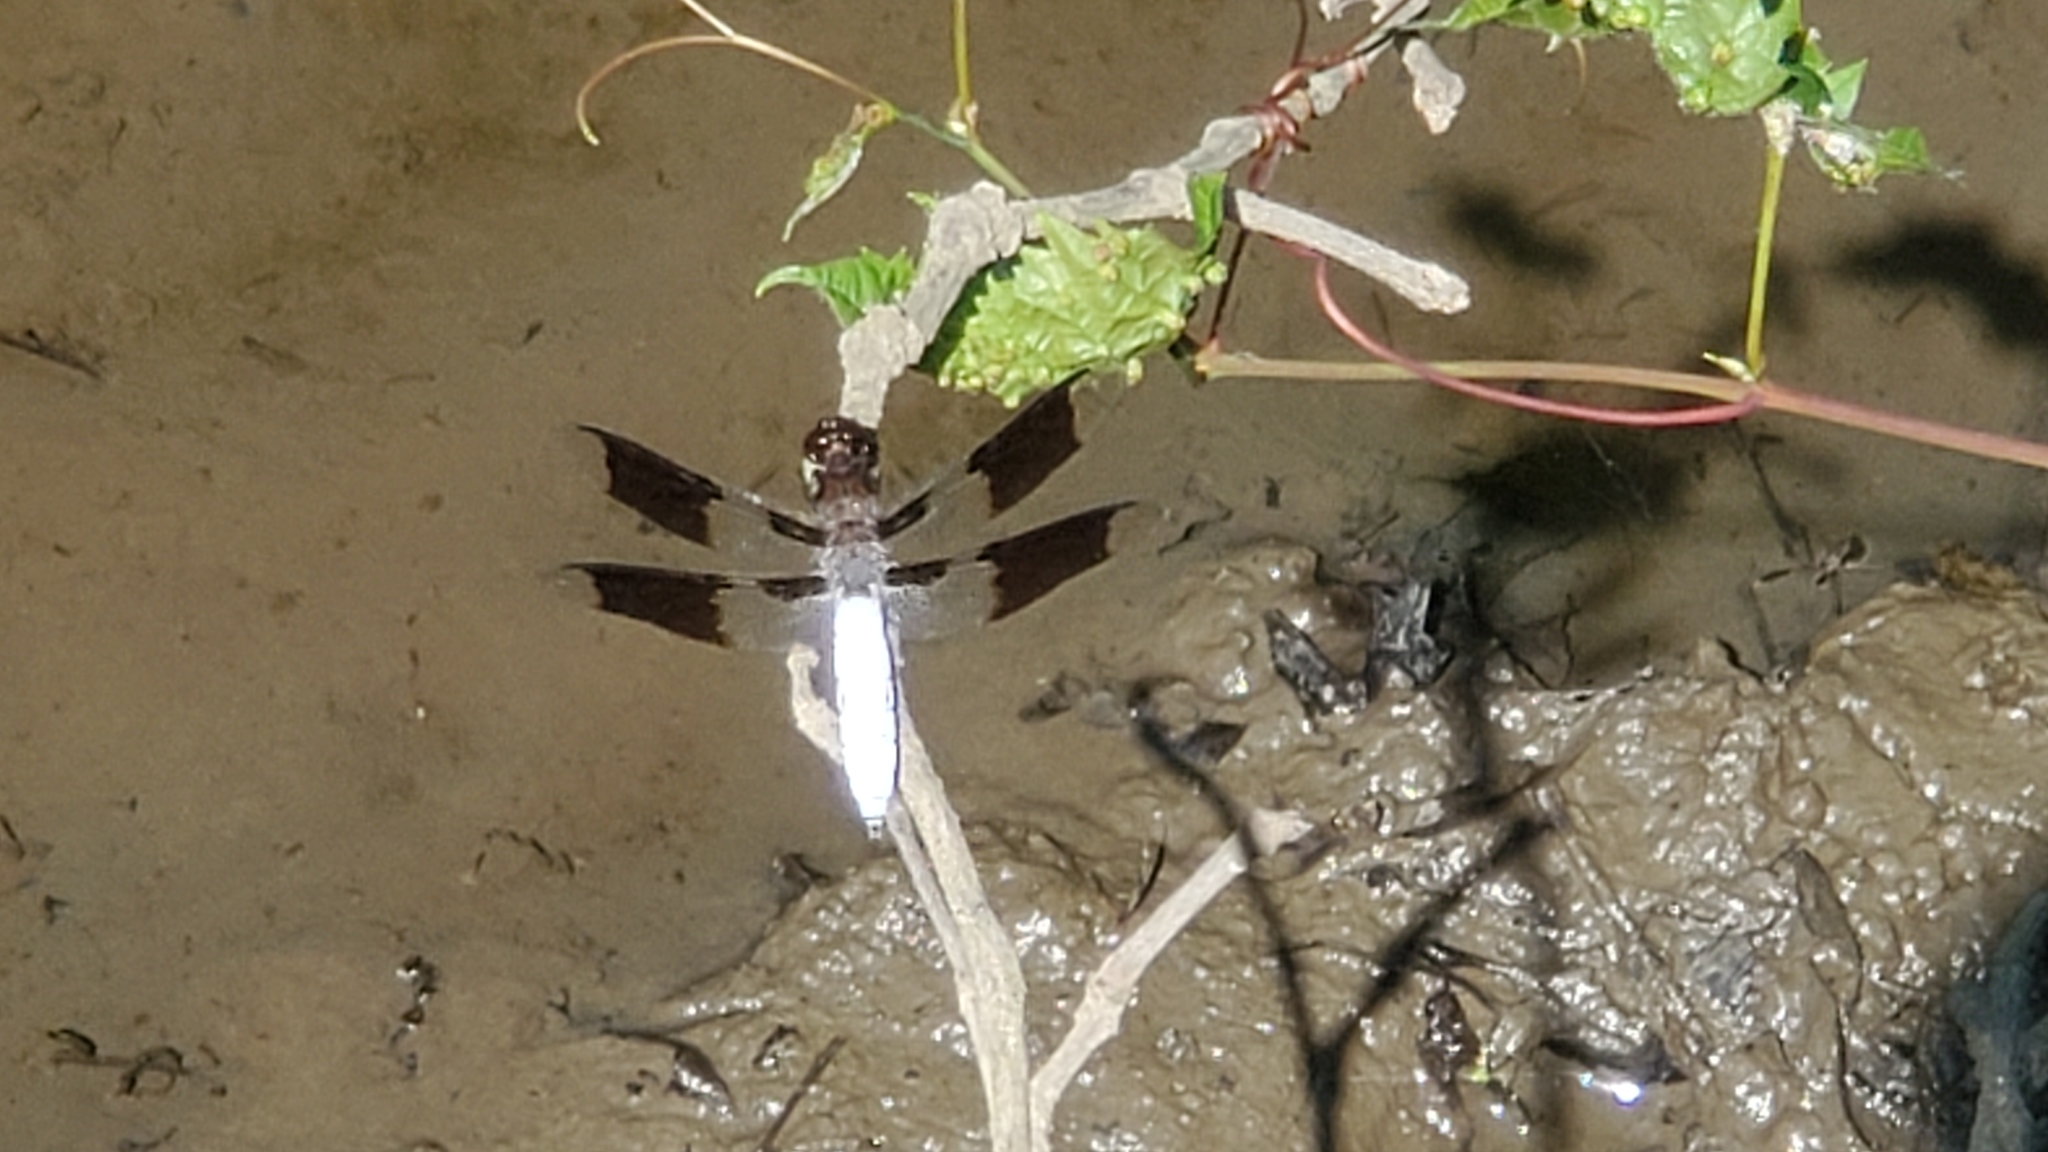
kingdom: Animalia
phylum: Arthropoda
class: Insecta
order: Odonata
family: Libellulidae
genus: Plathemis
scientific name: Plathemis lydia
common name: Common whitetail
